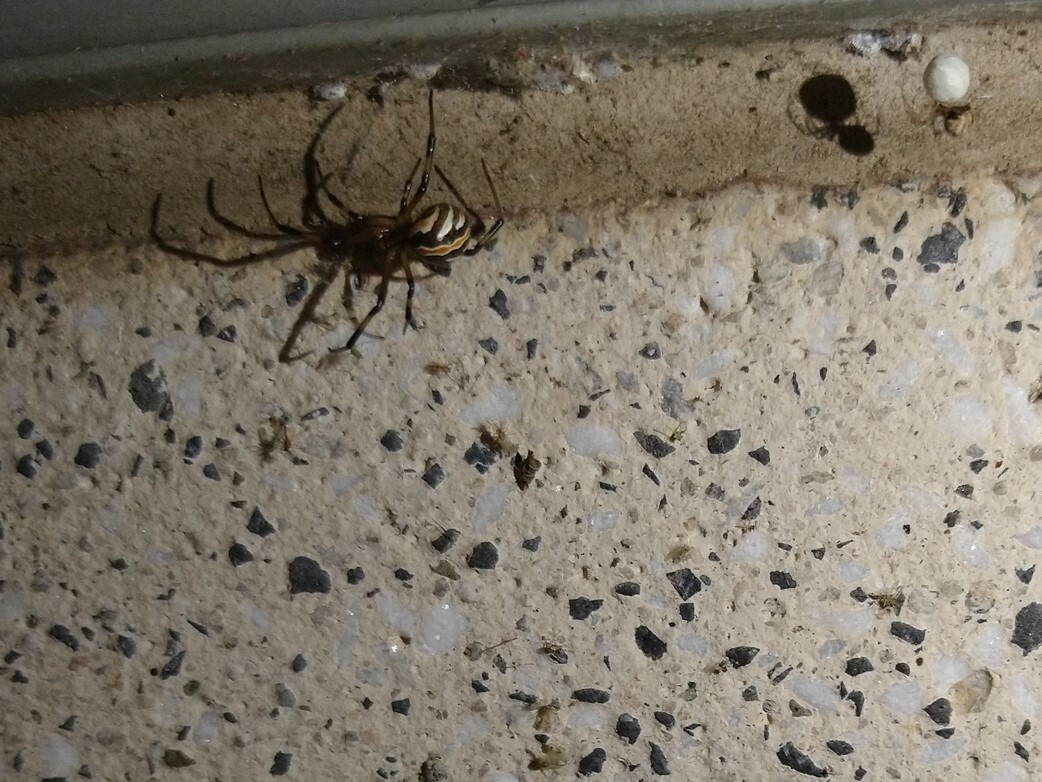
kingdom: Animalia
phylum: Arthropoda
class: Arachnida
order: Araneae
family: Theridiidae
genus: Latrodectus
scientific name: Latrodectus hesperus
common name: Western black widow
